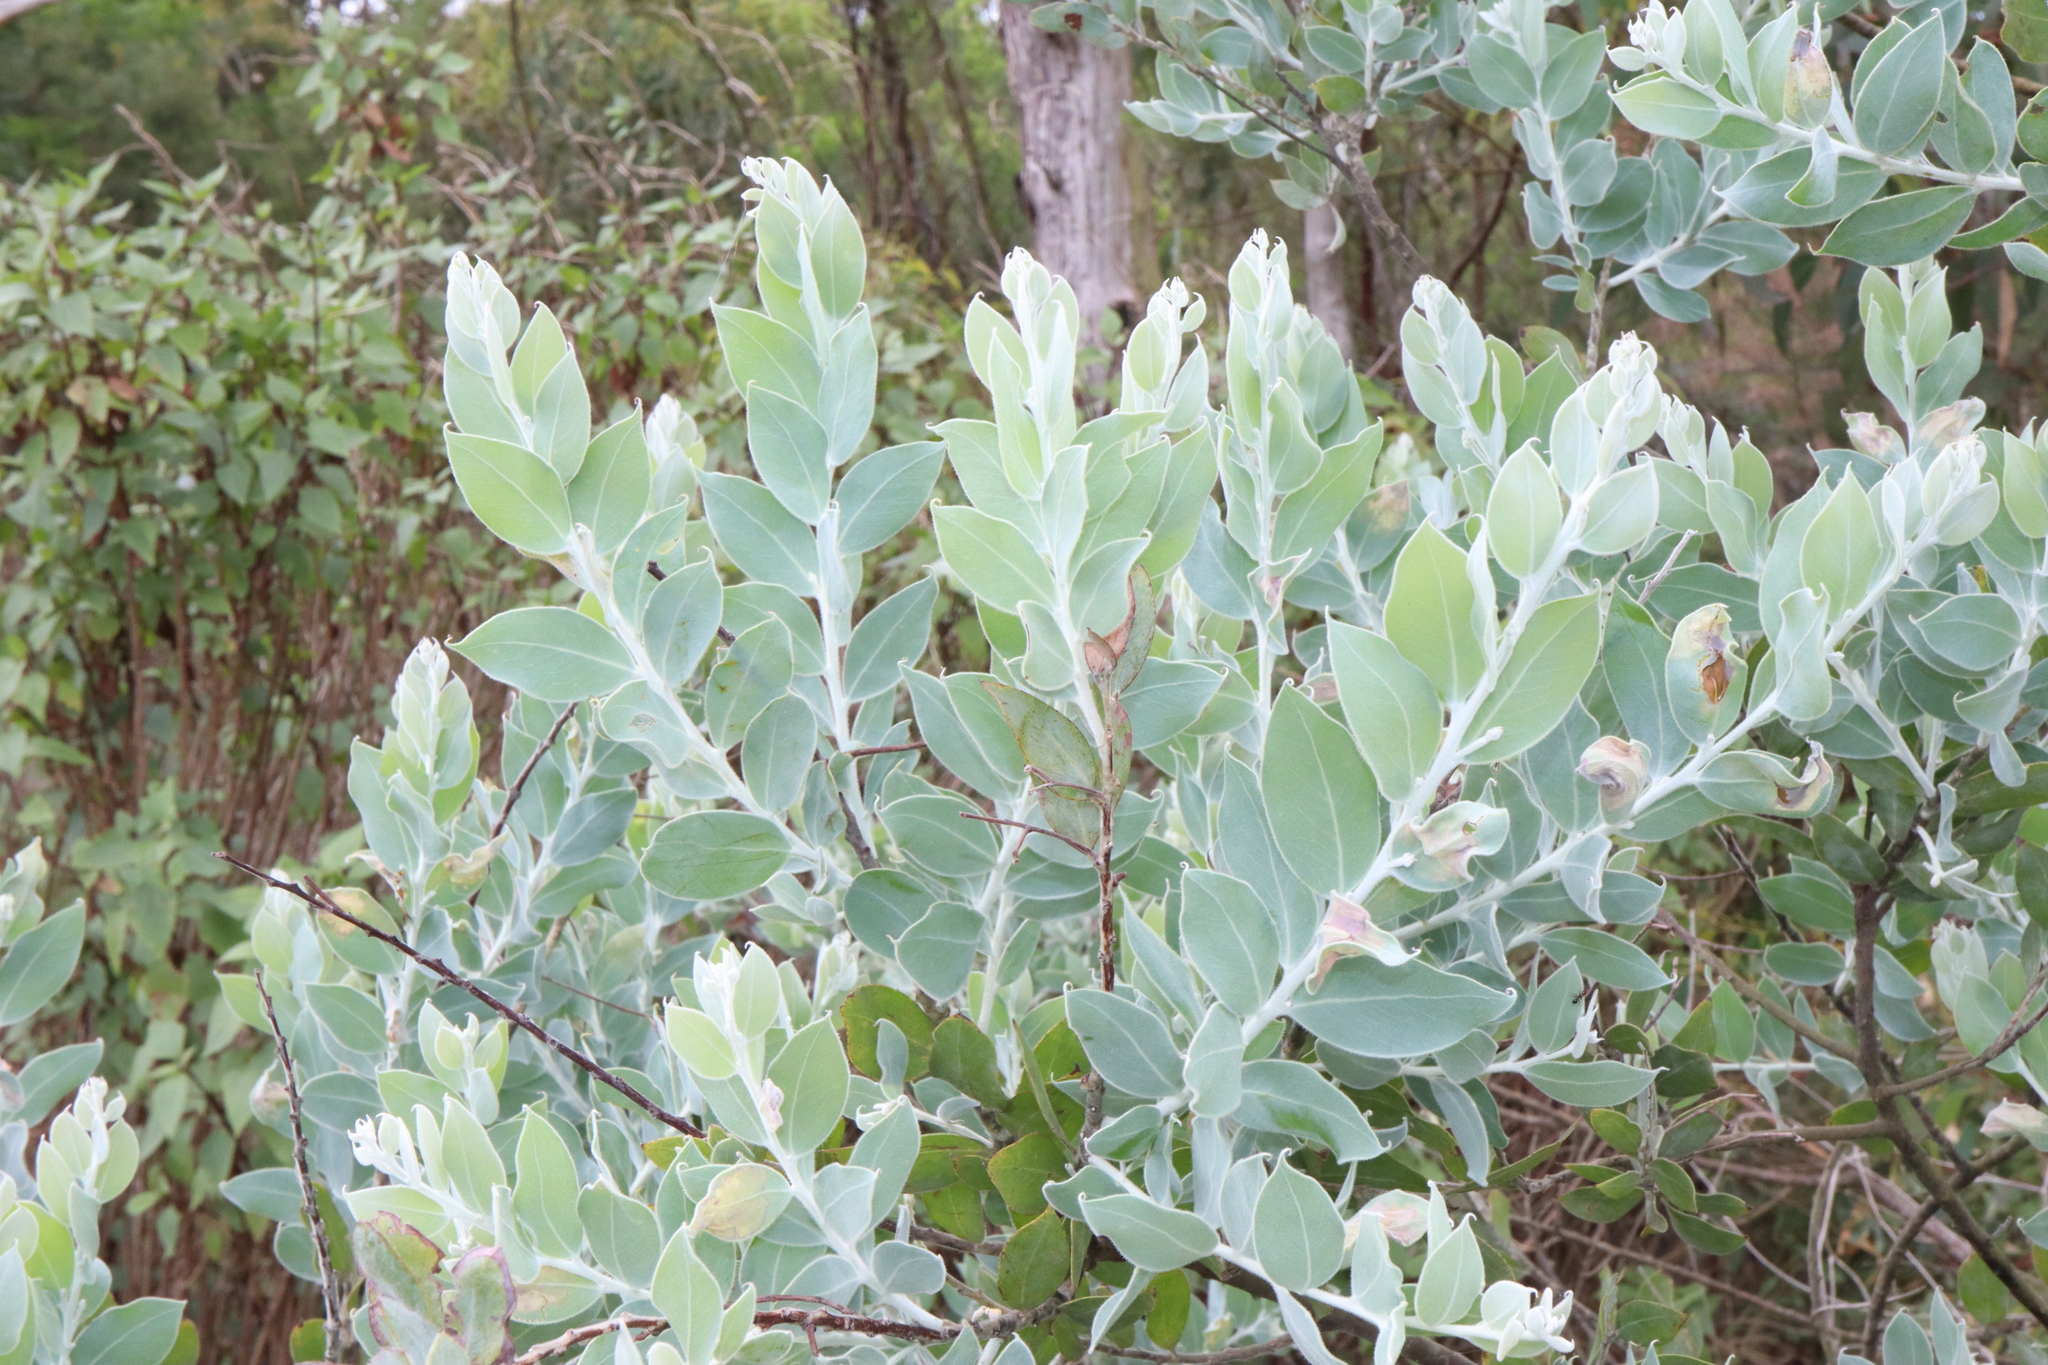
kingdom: Plantae
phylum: Tracheophyta
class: Magnoliopsida
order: Fabales
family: Fabaceae
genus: Acacia
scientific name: Acacia podalyriifolia
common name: Pearl wattle
